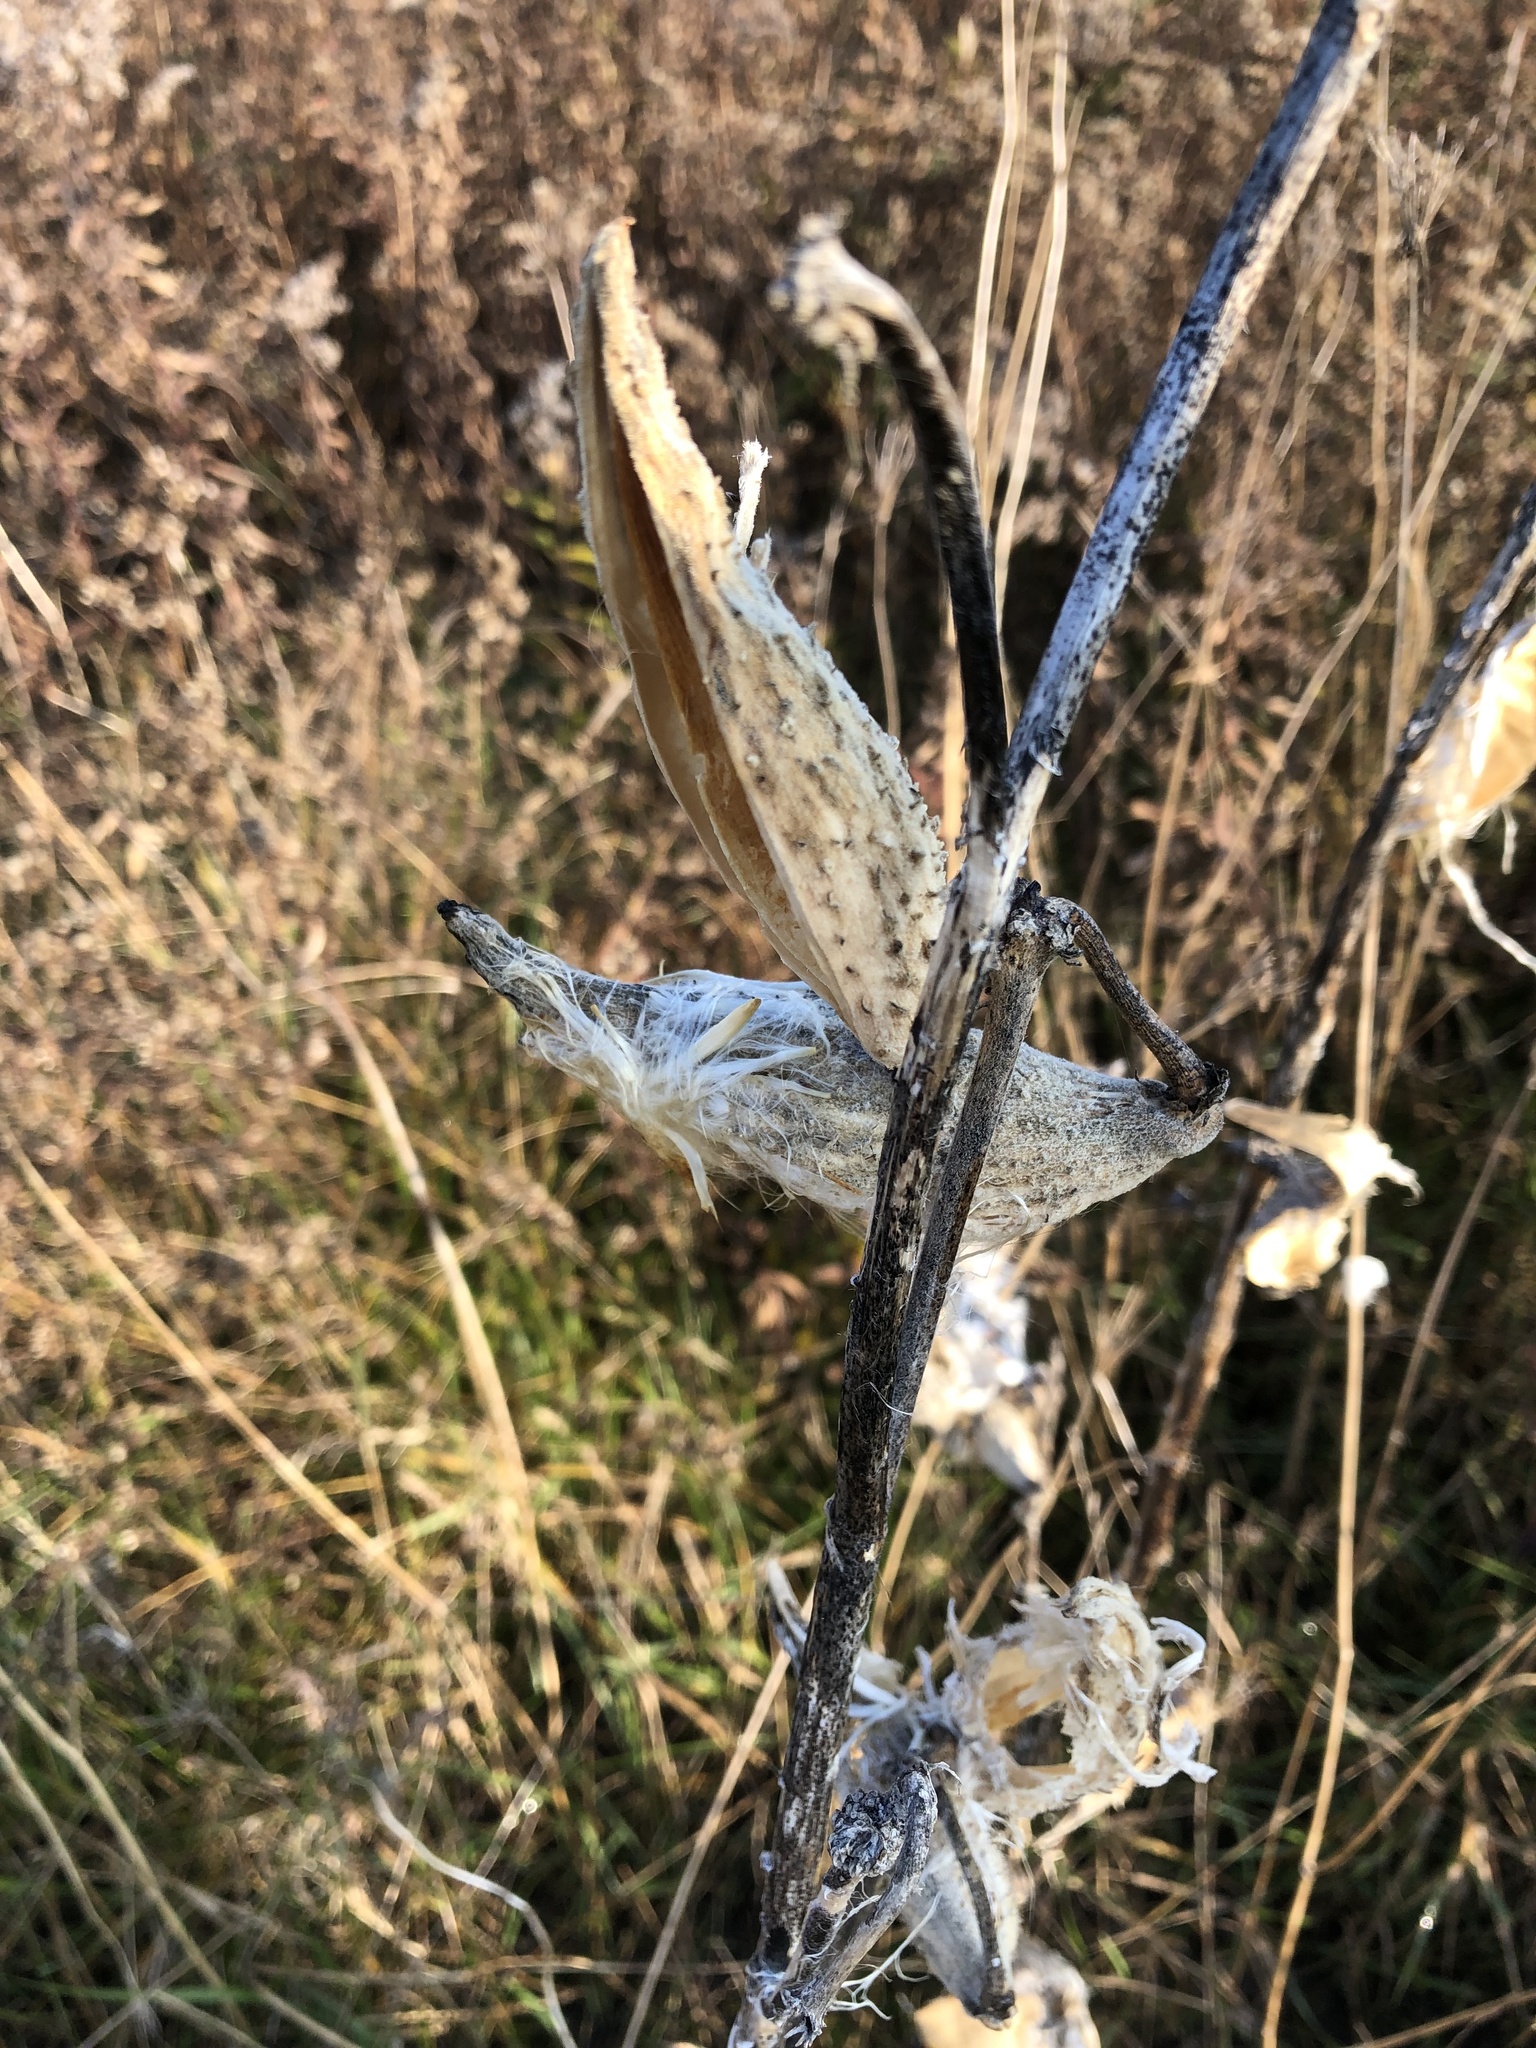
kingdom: Plantae
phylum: Tracheophyta
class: Magnoliopsida
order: Gentianales
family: Apocynaceae
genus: Asclepias
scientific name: Asclepias syriaca
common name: Common milkweed
